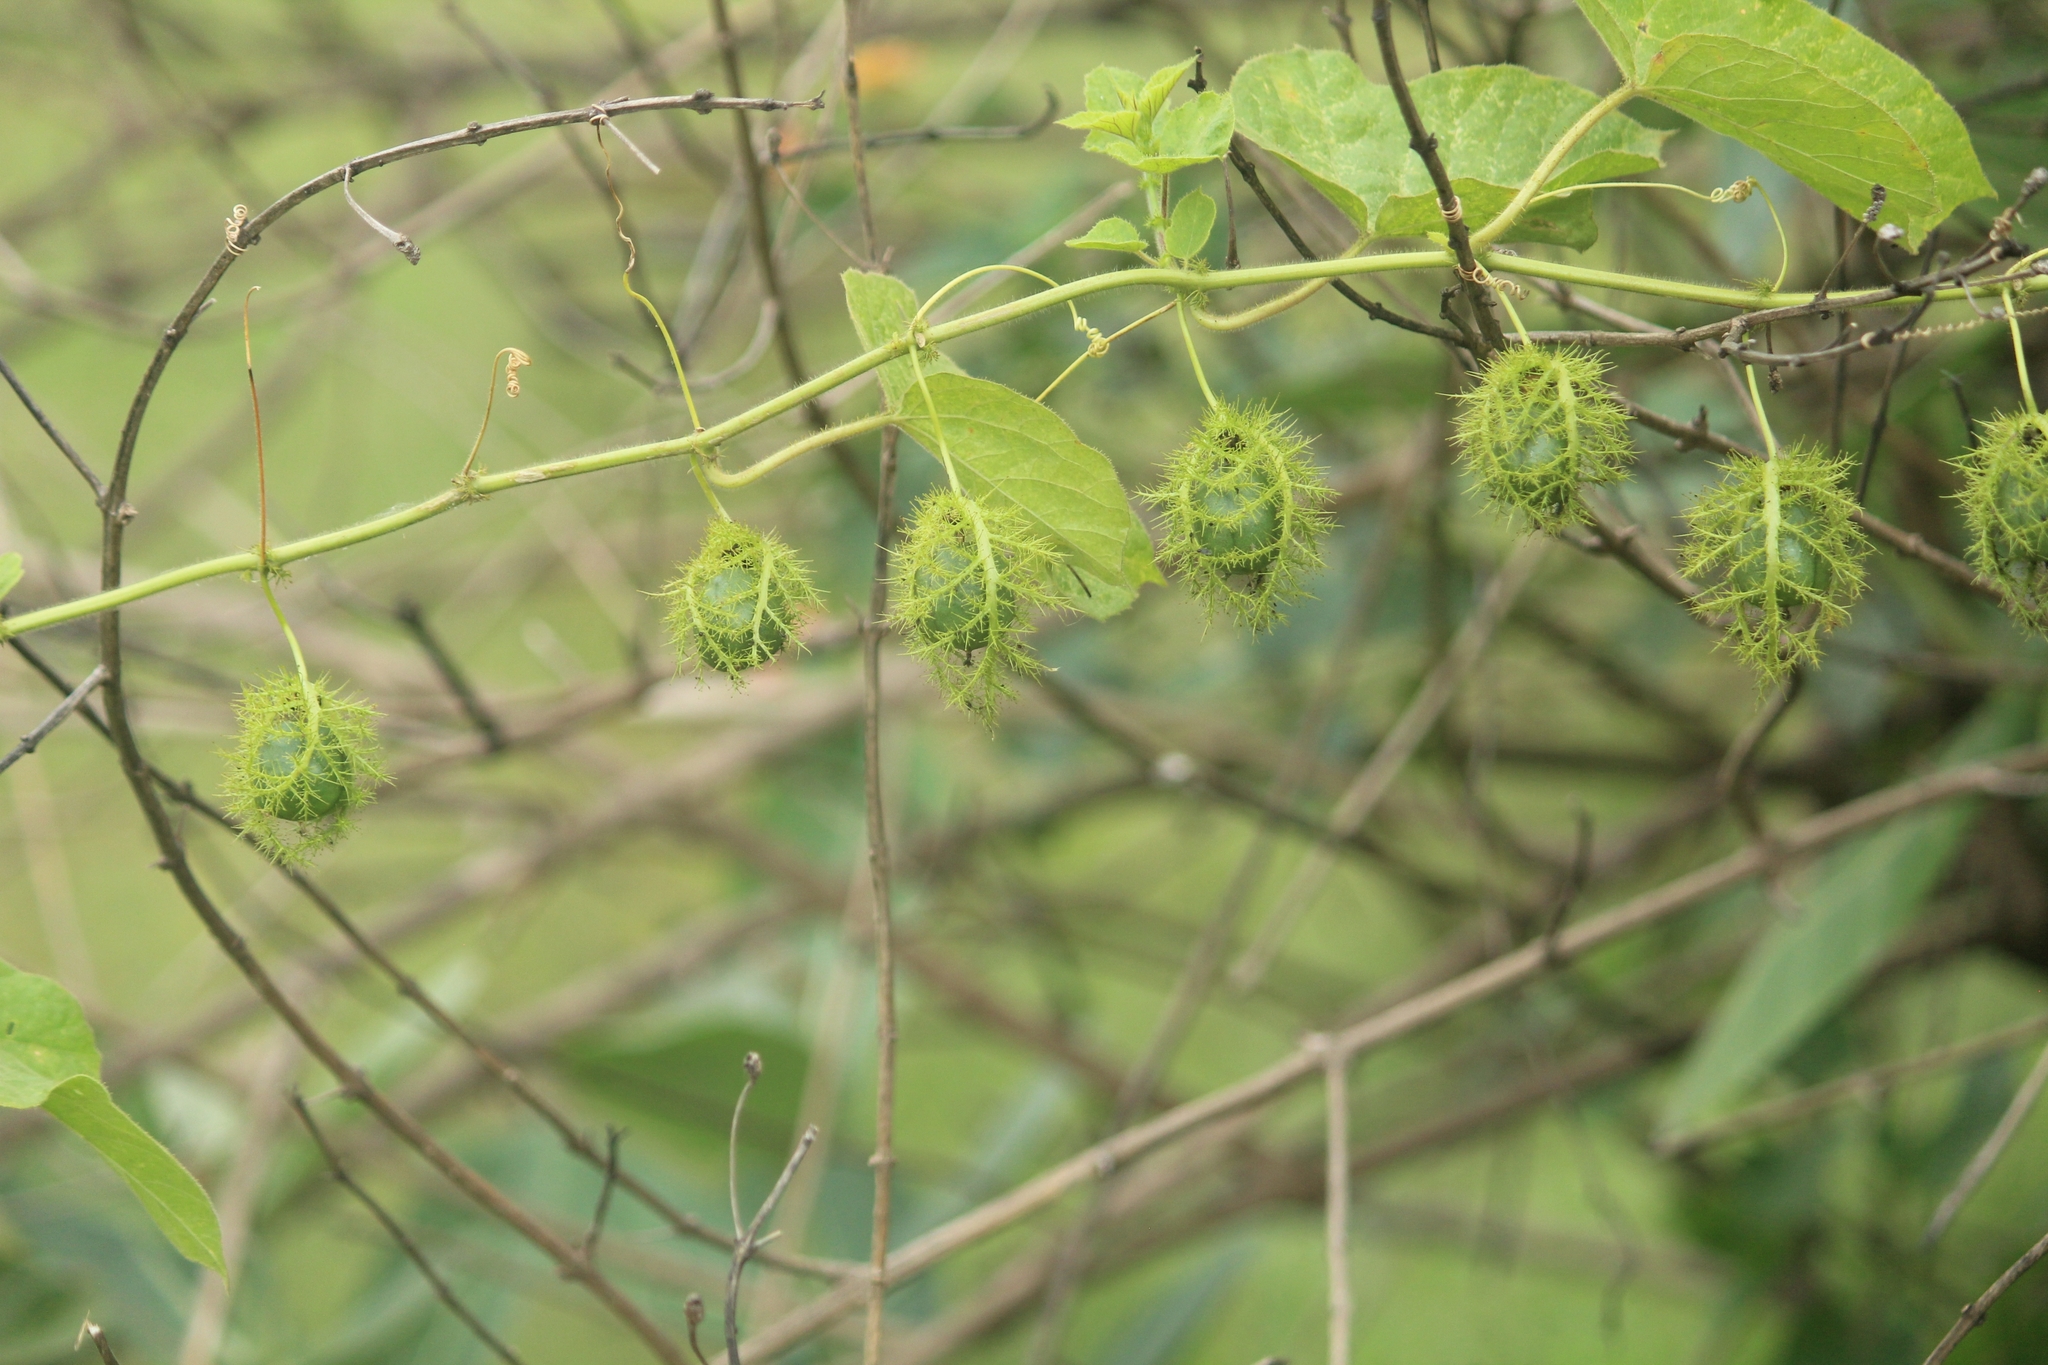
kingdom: Plantae
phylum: Tracheophyta
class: Magnoliopsida
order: Malpighiales
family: Passifloraceae
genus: Passiflora
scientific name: Passiflora foetida
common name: Fetid passionflower
